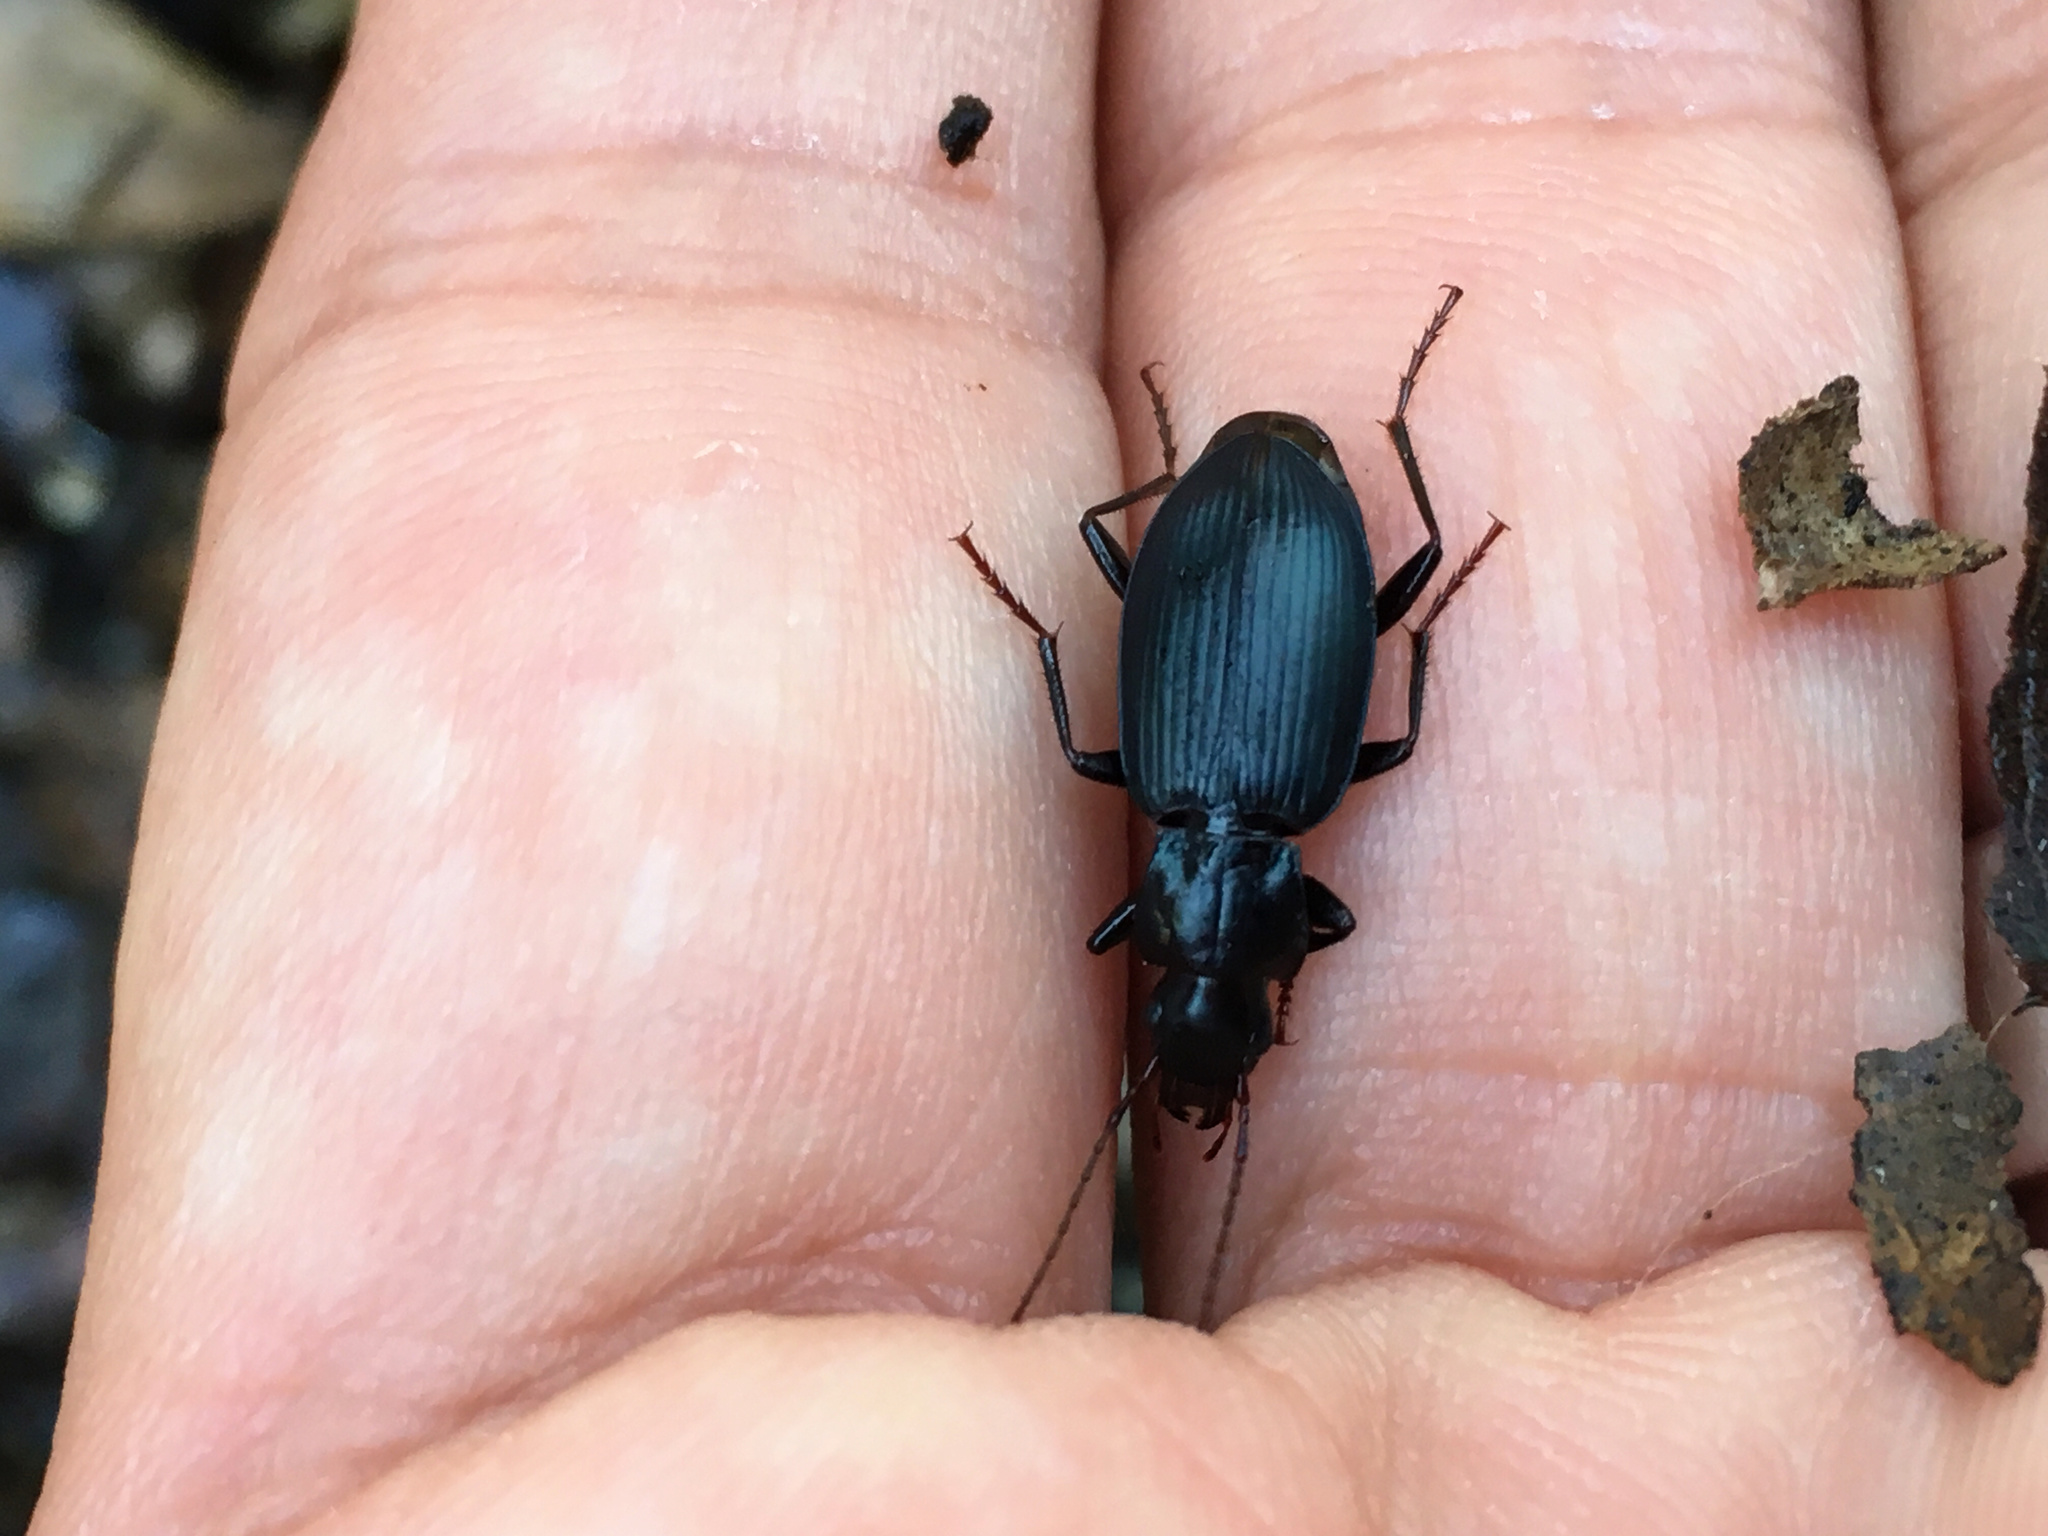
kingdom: Animalia
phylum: Arthropoda
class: Insecta
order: Coleoptera
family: Carabidae
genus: Laemostenus
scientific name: Laemostenus complanatus
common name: Cosmopolitan ground beetle
